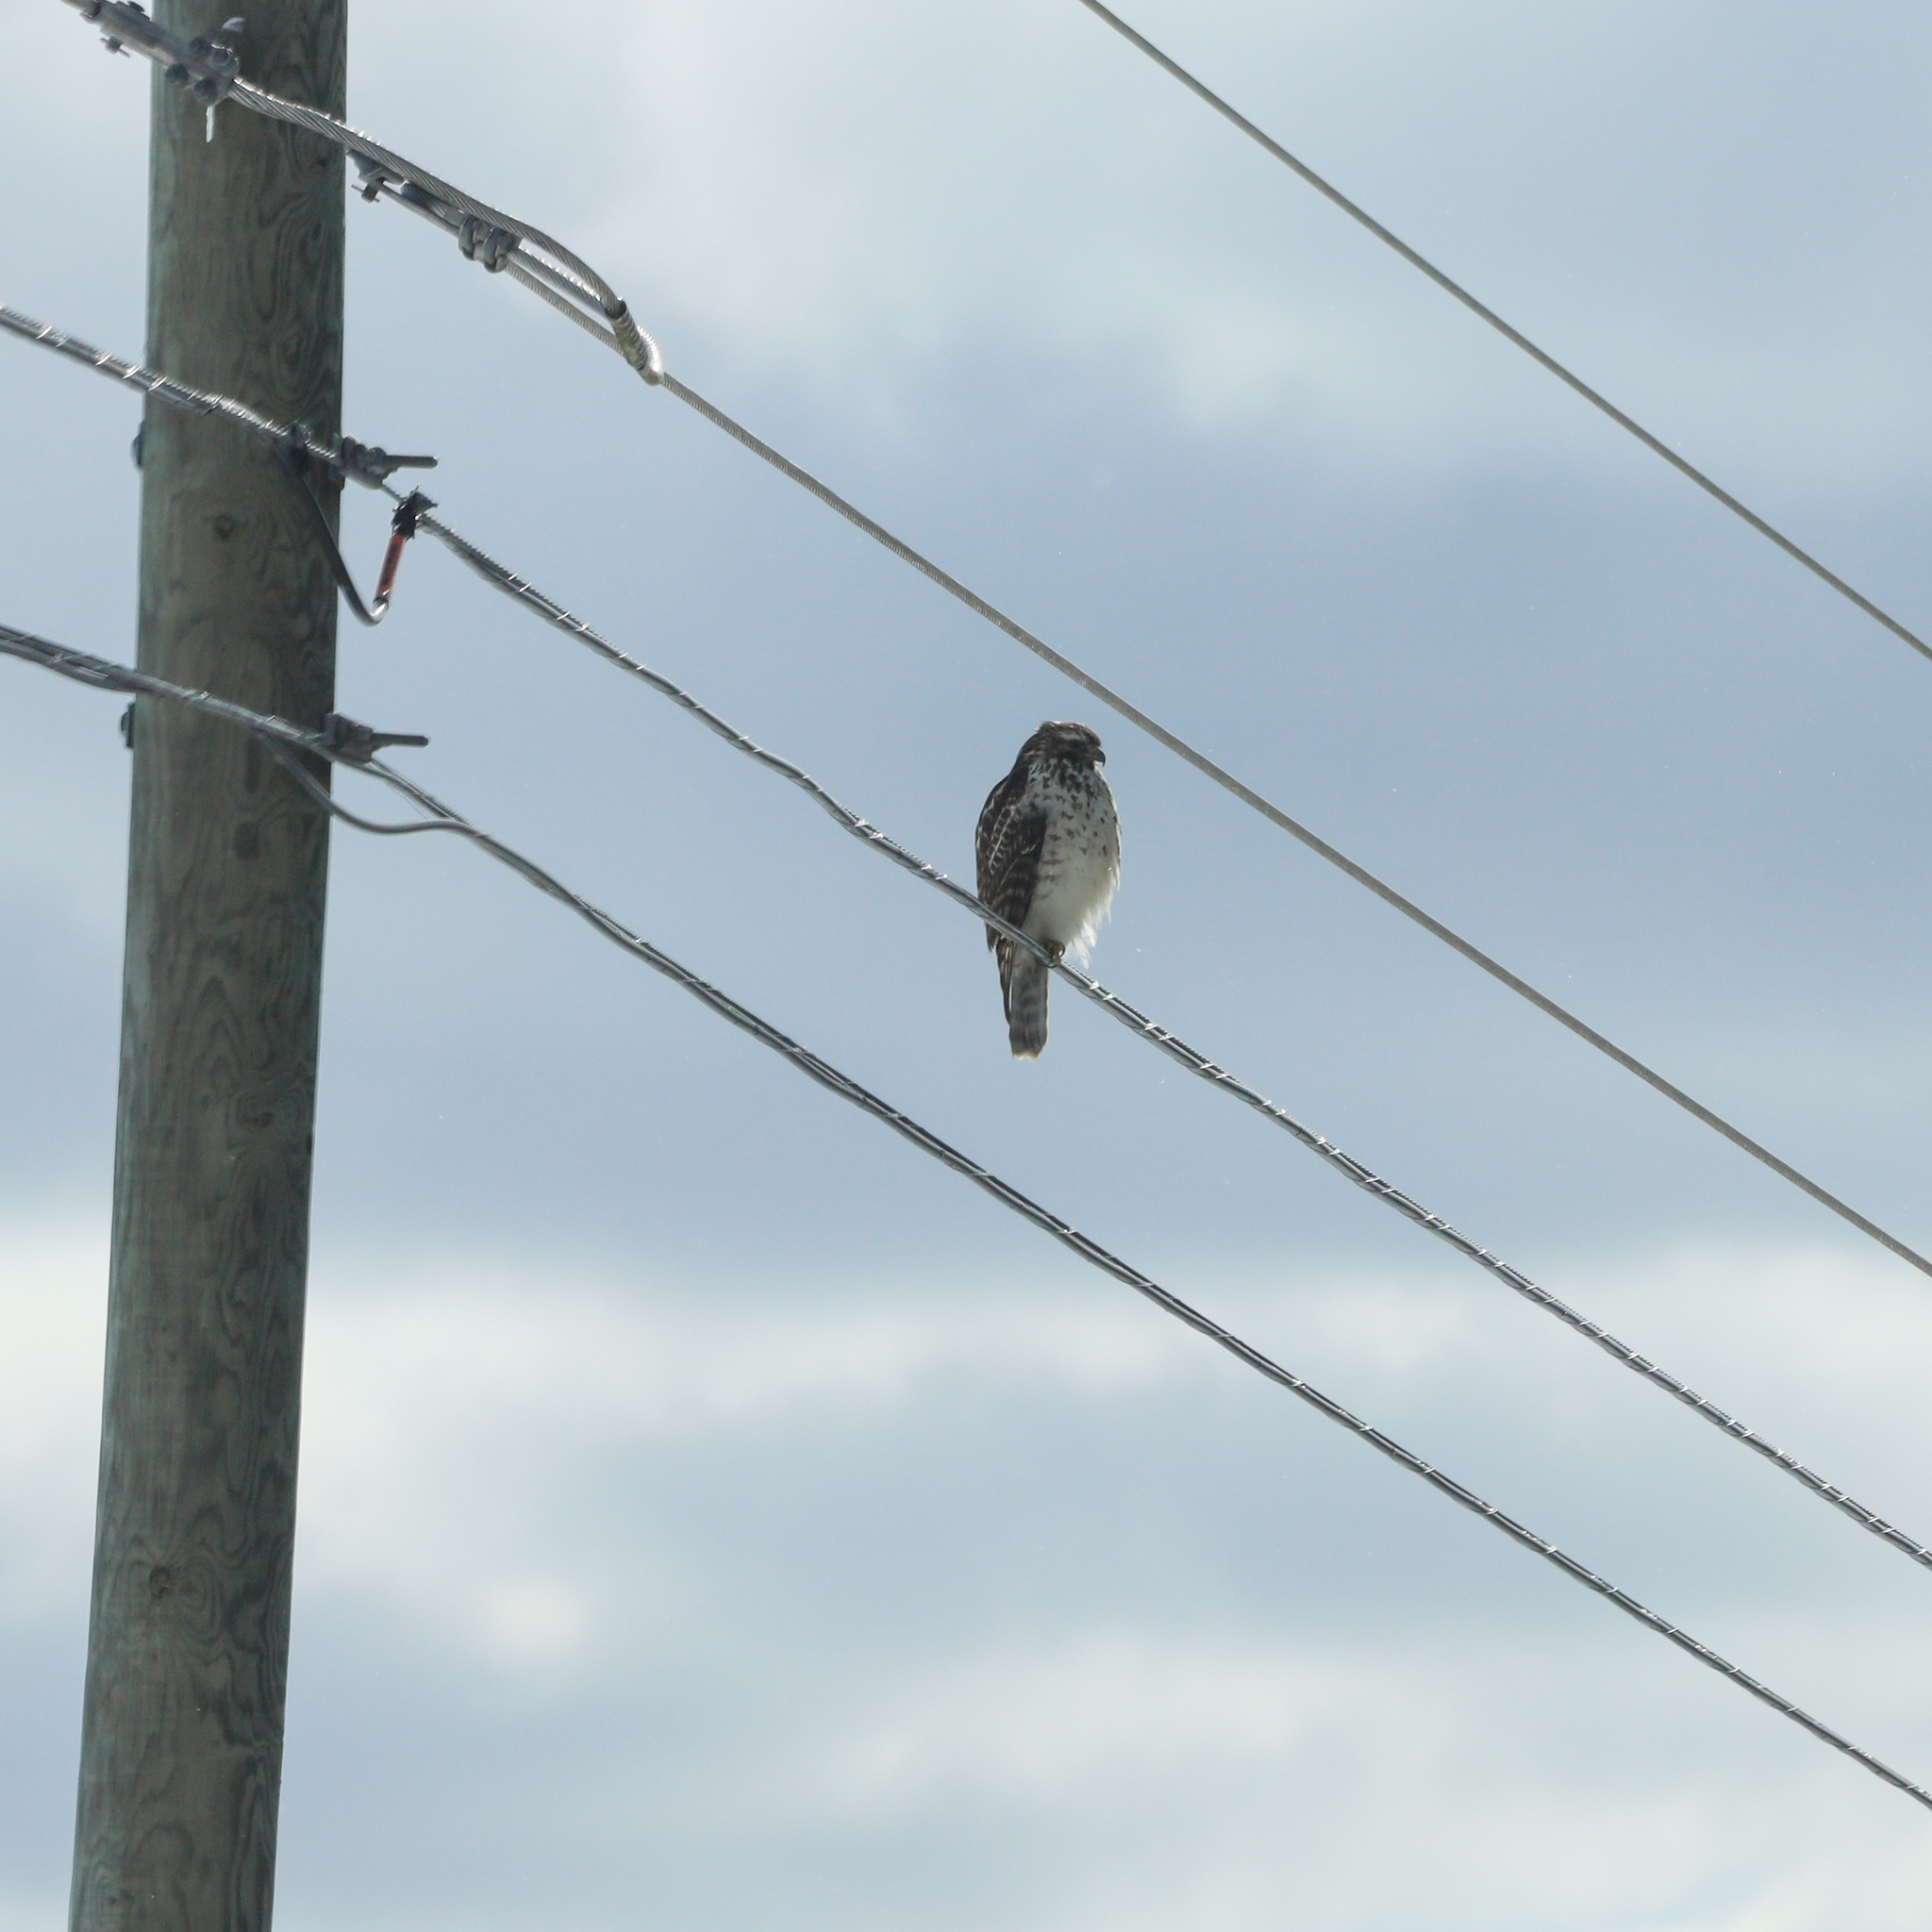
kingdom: Animalia
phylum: Chordata
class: Aves
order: Accipitriformes
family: Accipitridae
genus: Buteo
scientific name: Buteo lineatus
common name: Red-shouldered hawk
